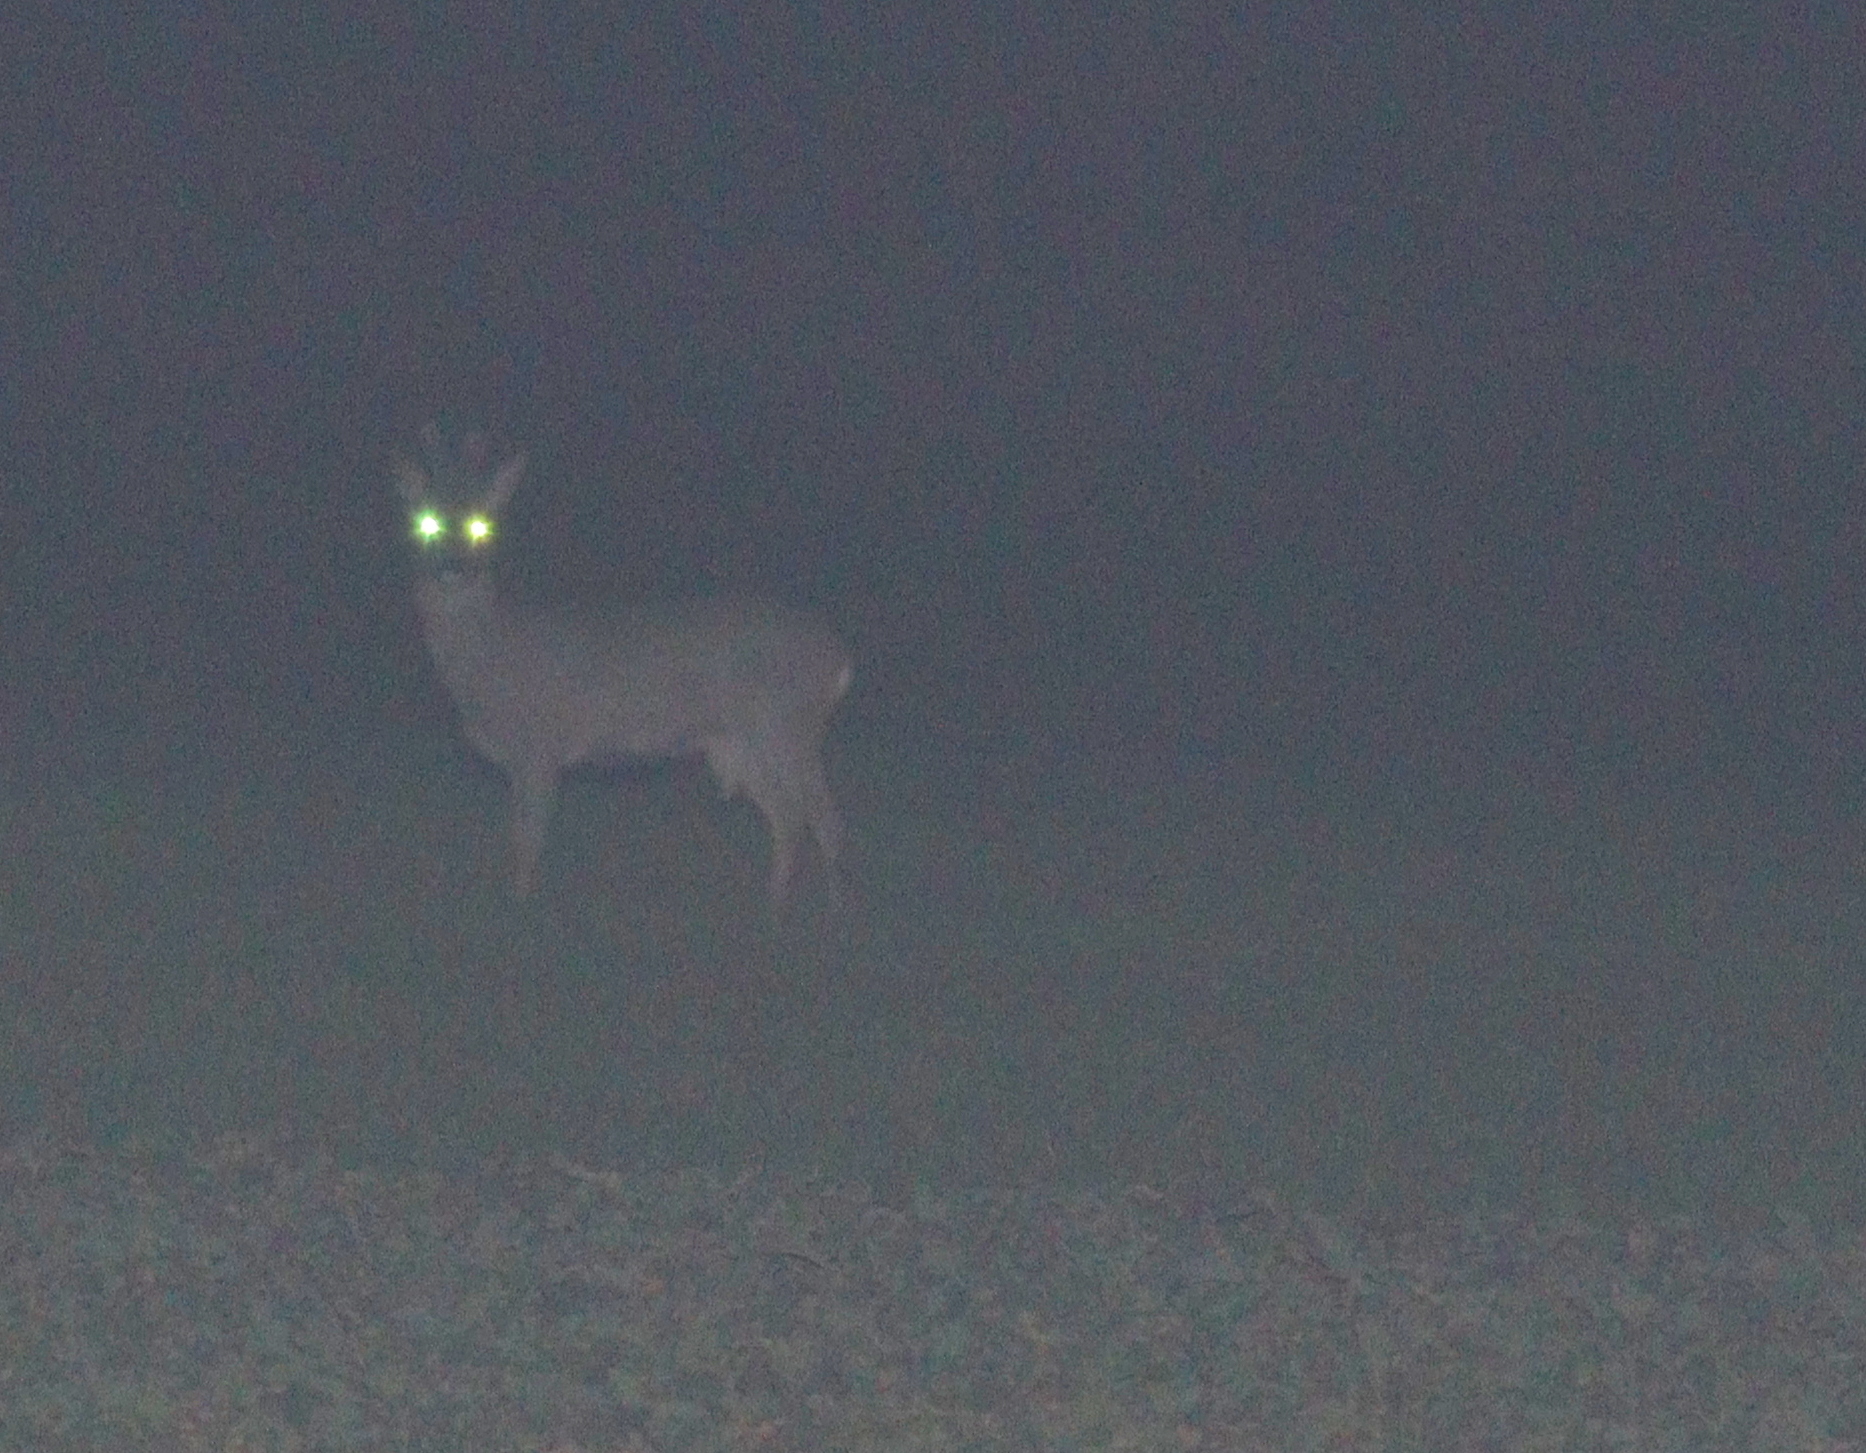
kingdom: Animalia
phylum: Chordata
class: Mammalia
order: Artiodactyla
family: Cervidae
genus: Capreolus
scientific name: Capreolus capreolus
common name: Western roe deer
